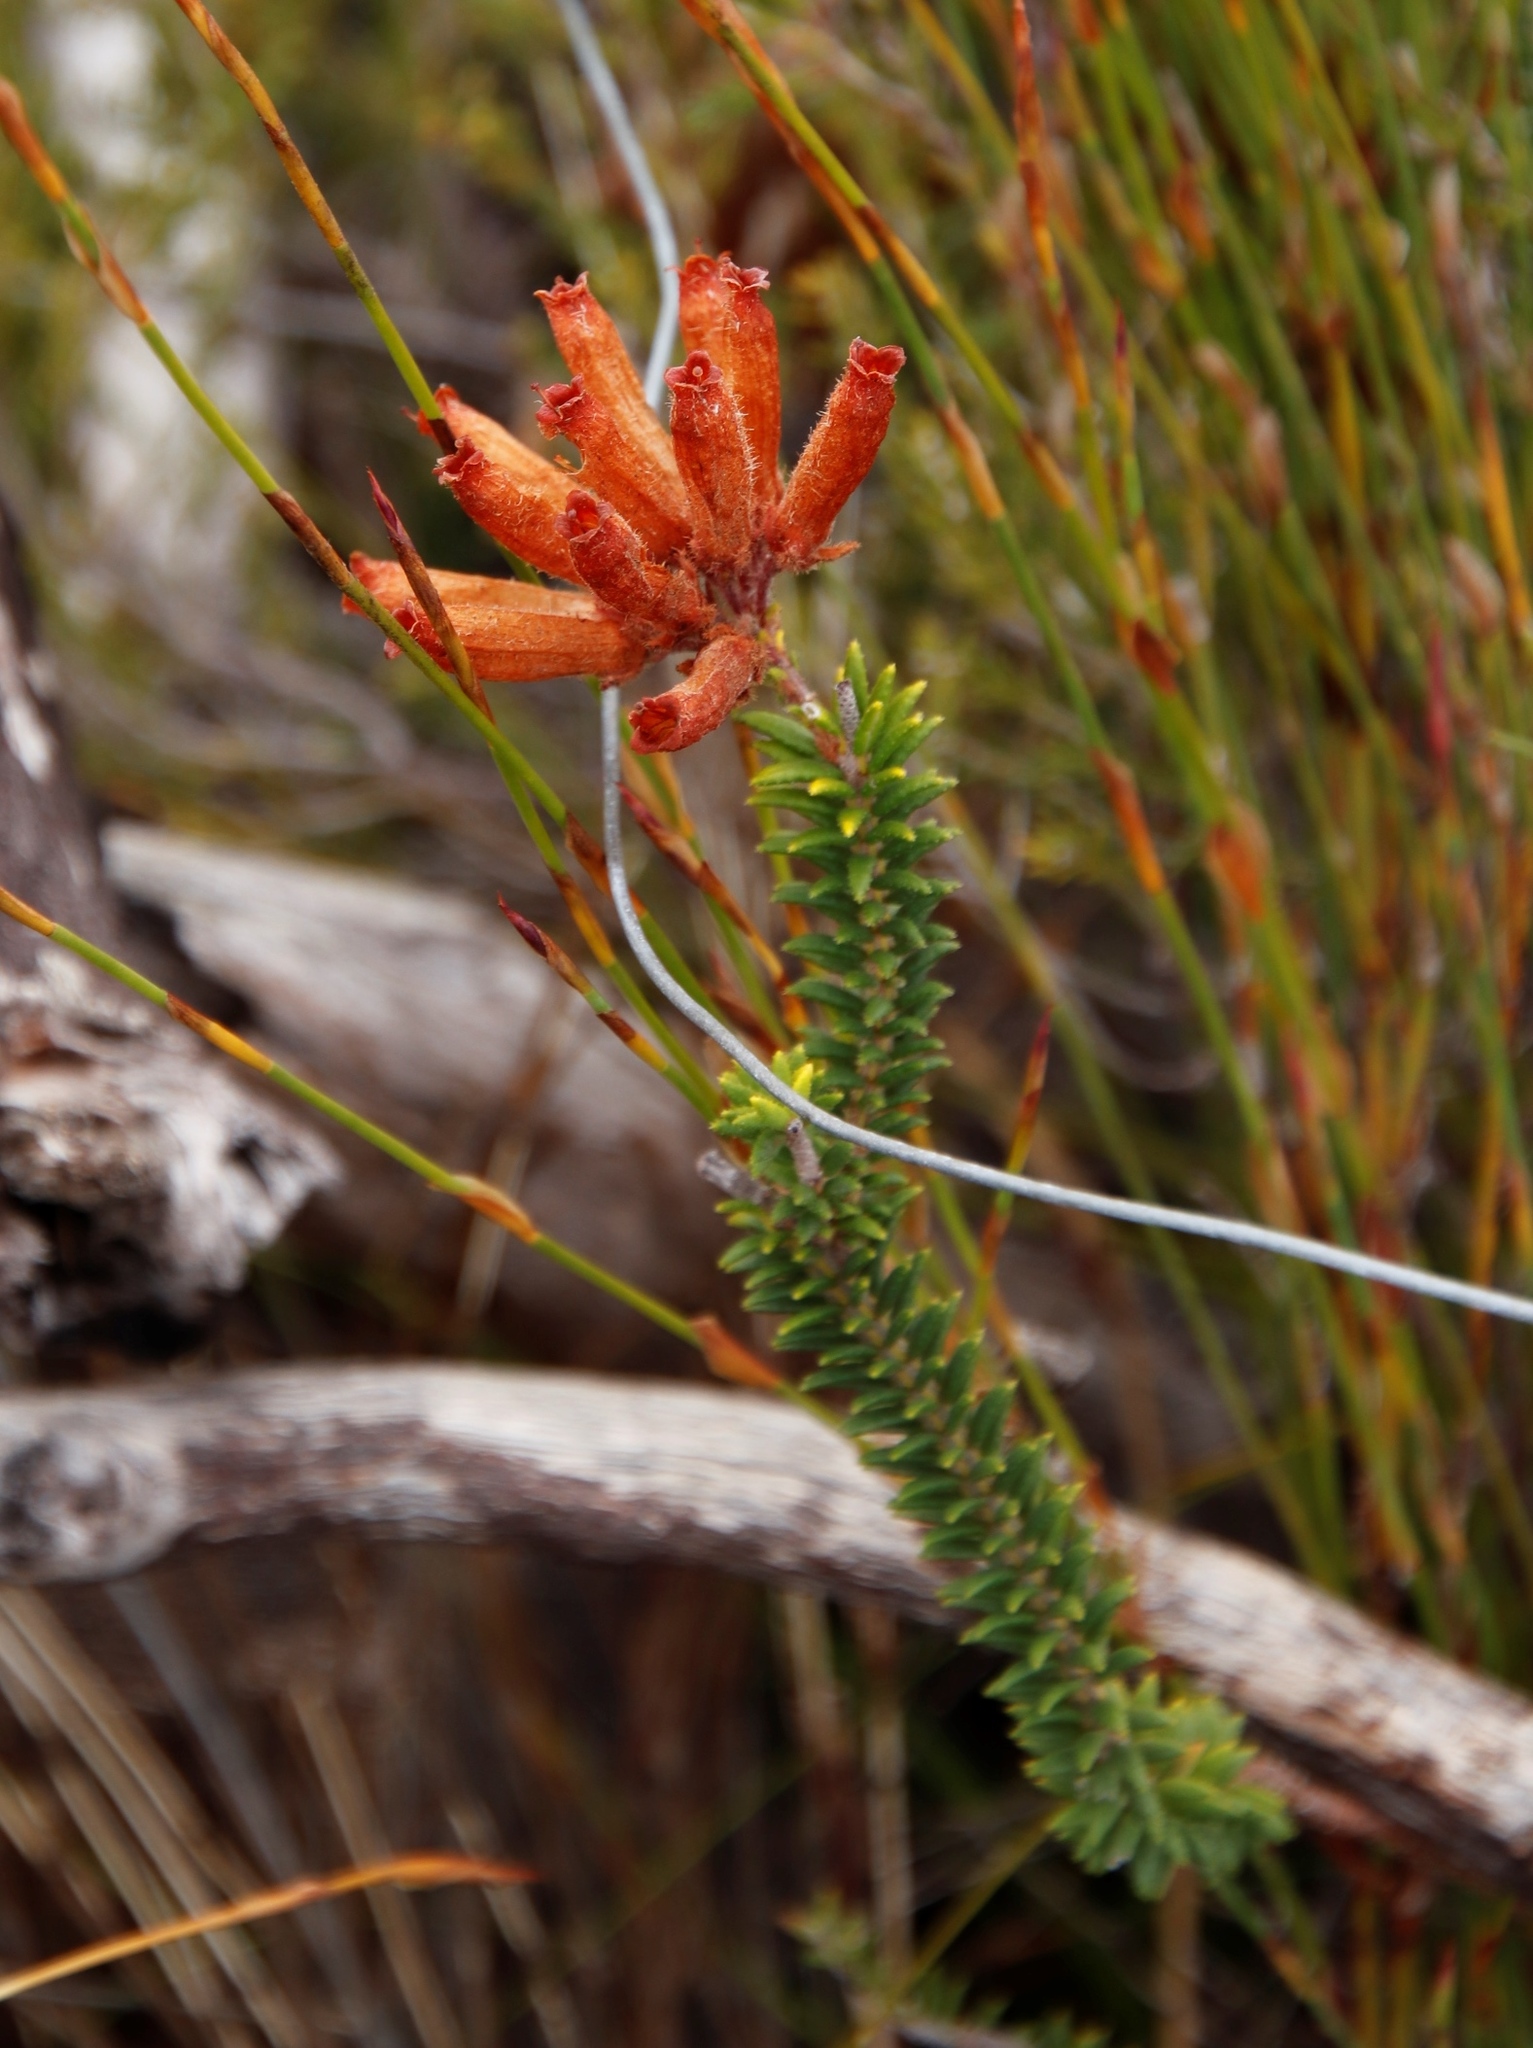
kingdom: Plantae
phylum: Tracheophyta
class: Magnoliopsida
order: Ericales
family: Ericaceae
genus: Erica
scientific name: Erica cerinthoides
